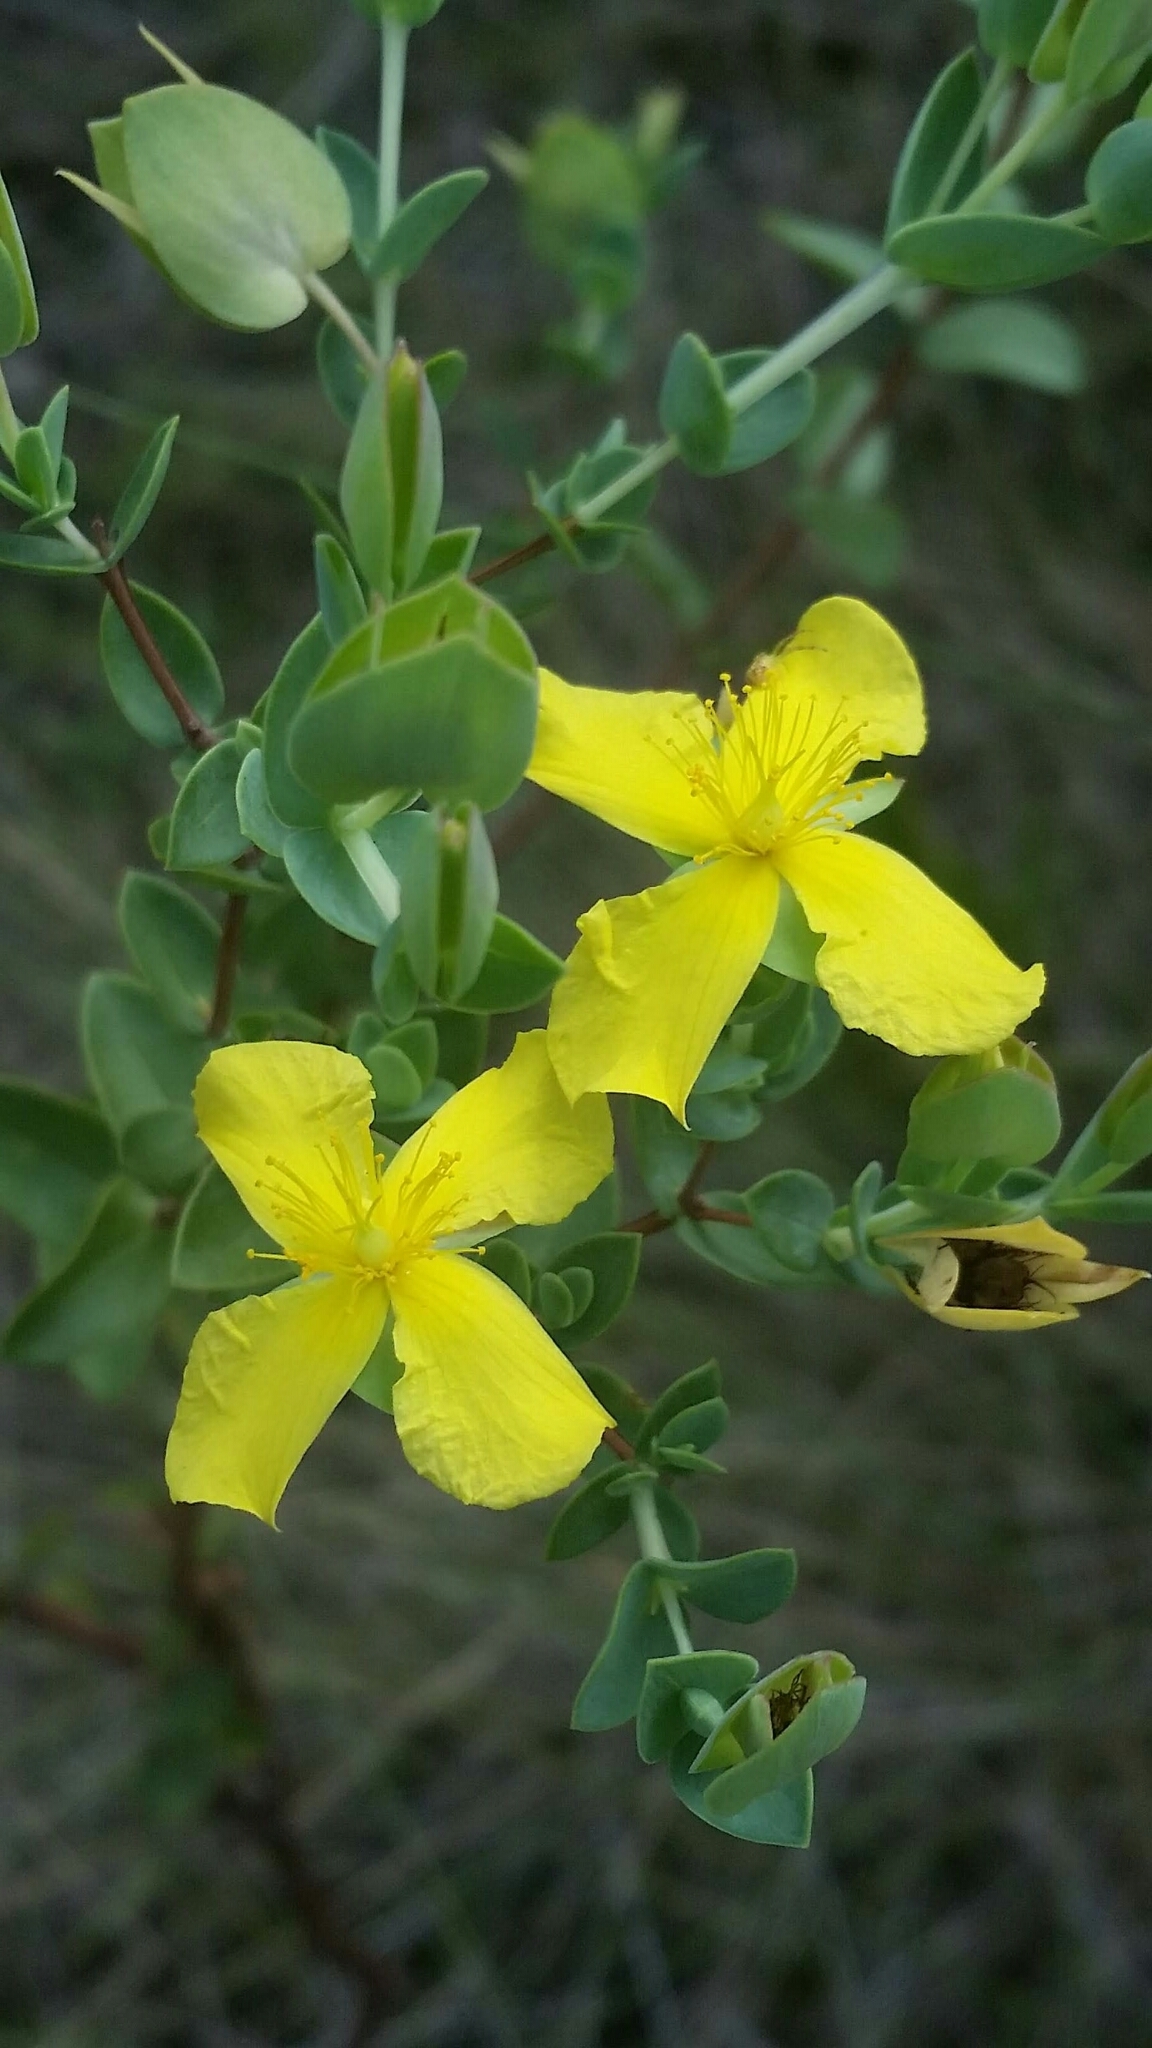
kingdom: Plantae
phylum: Tracheophyta
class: Magnoliopsida
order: Malpighiales
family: Hypericaceae
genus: Hypericum
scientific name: Hypericum tetrapetalum
